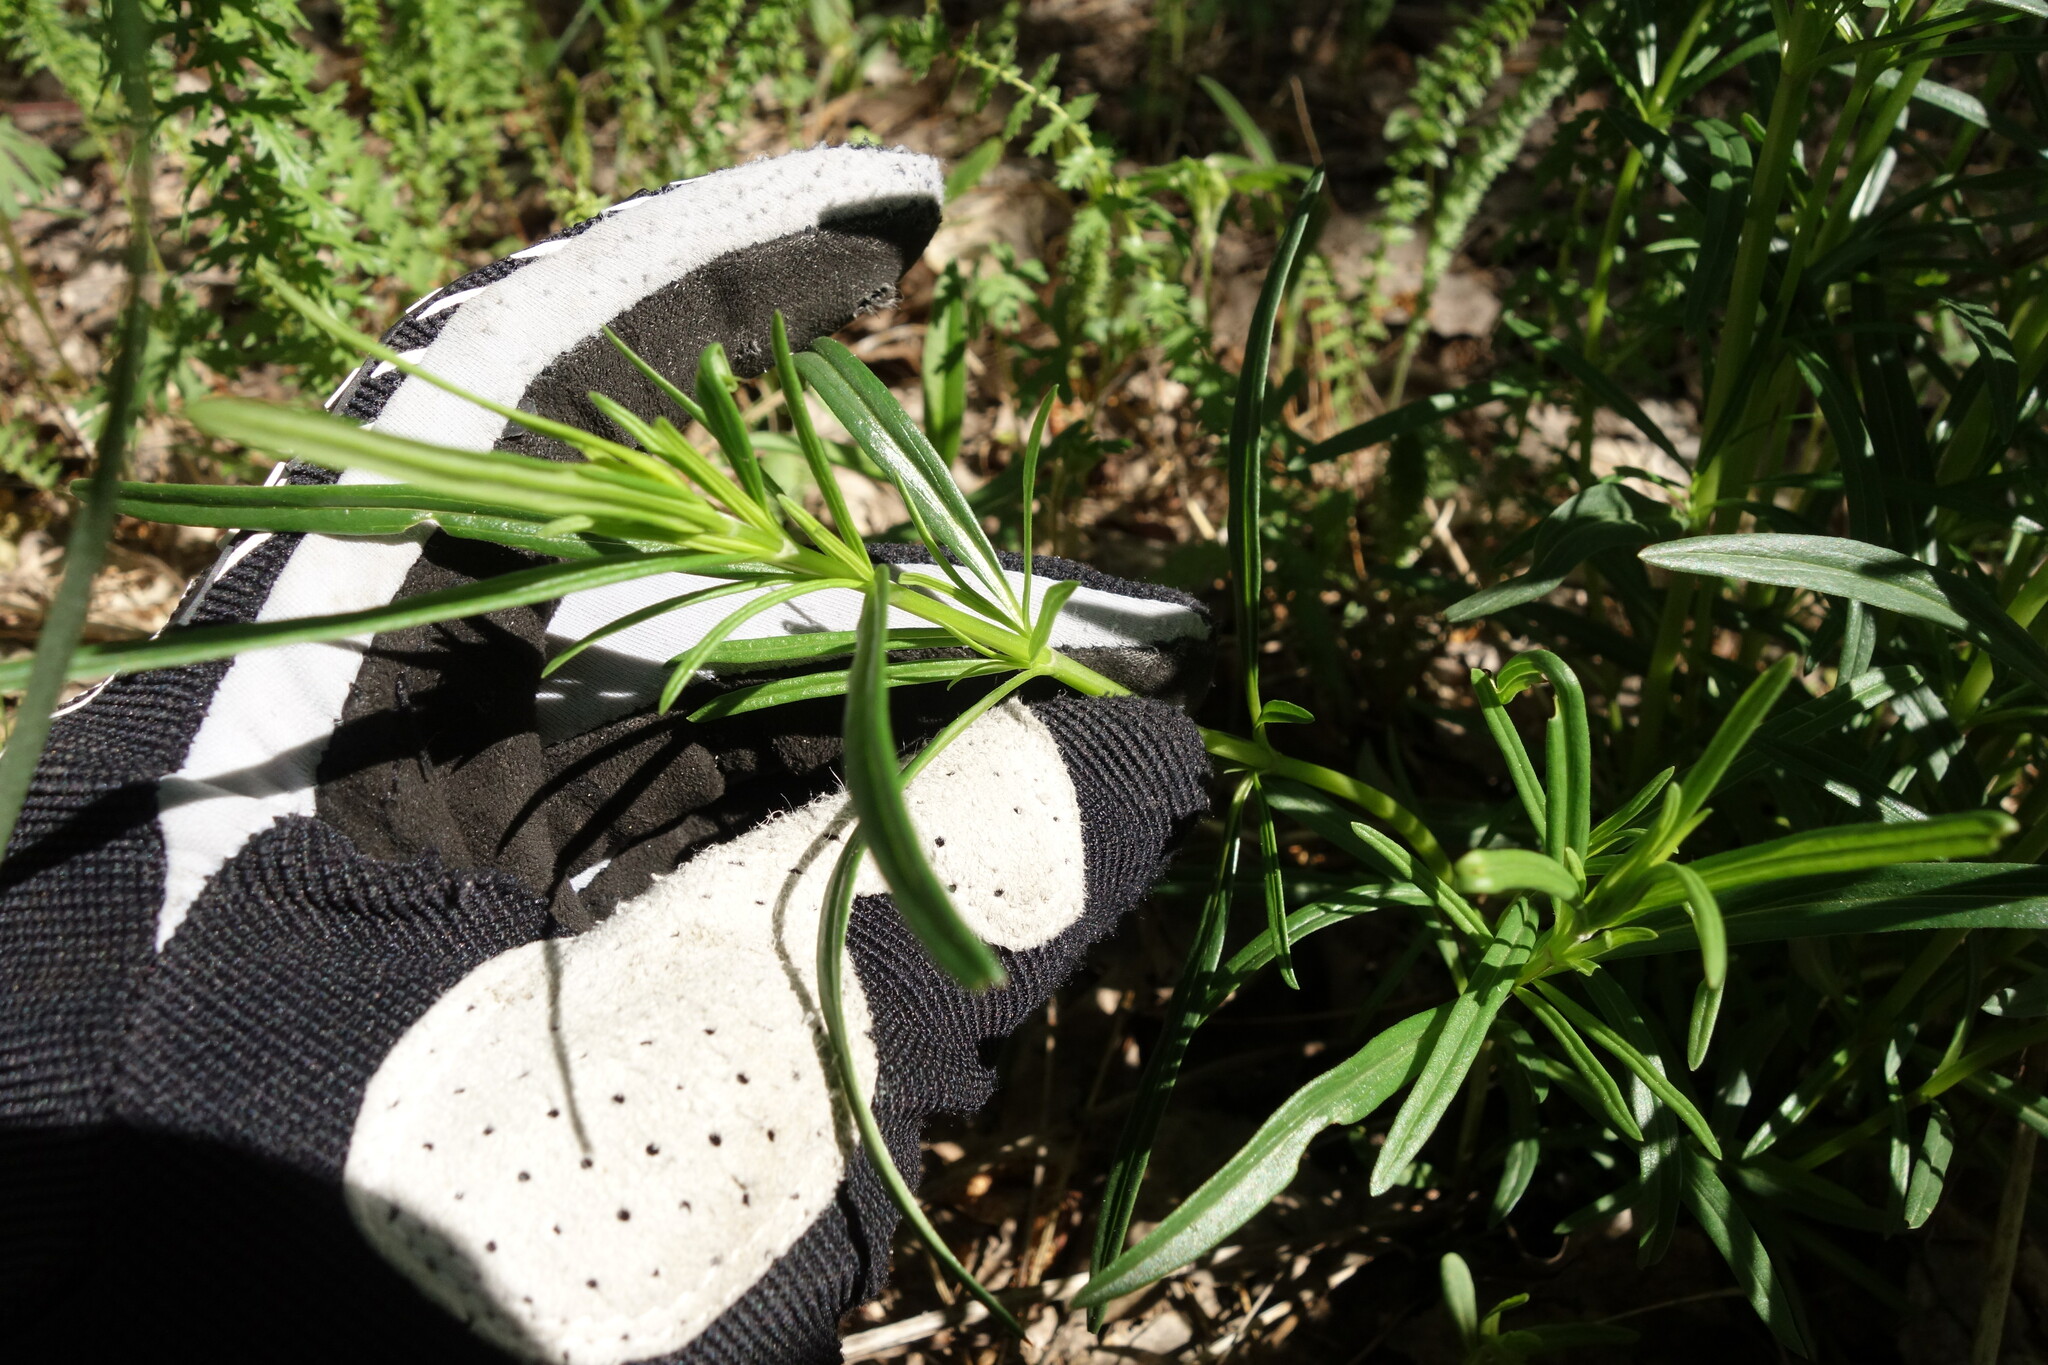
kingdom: Plantae
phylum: Tracheophyta
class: Magnoliopsida
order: Lamiales
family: Lamiaceae
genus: Dracocephalum
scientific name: Dracocephalum ruyschiana
